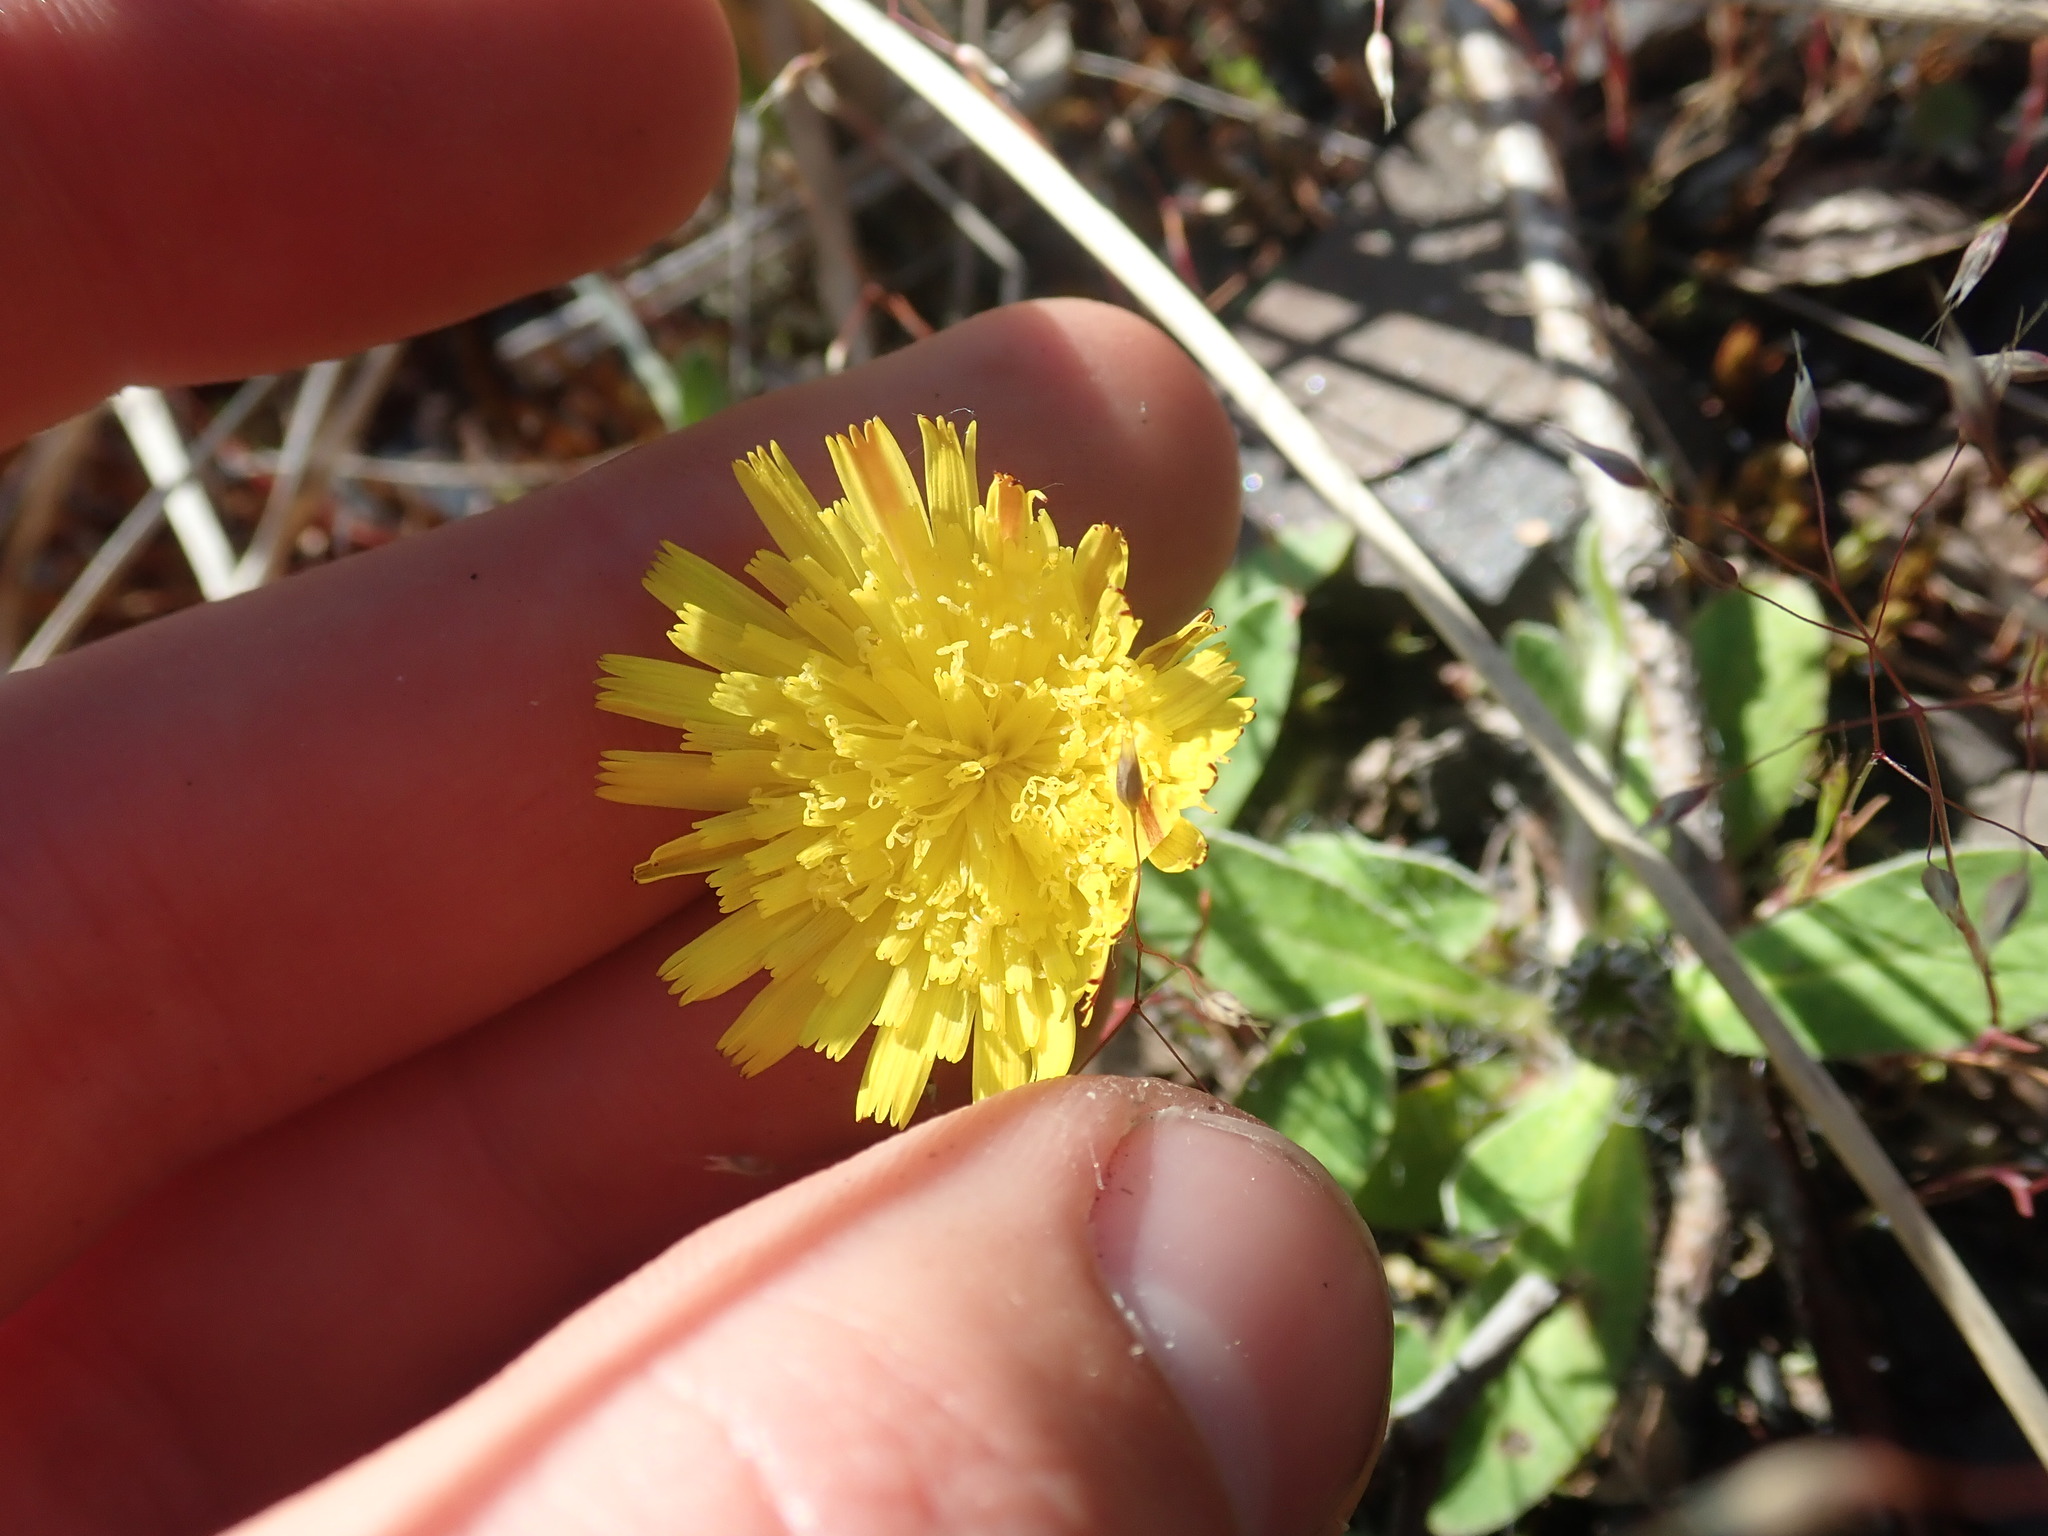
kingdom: Plantae
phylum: Tracheophyta
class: Magnoliopsida
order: Asterales
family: Asteraceae
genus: Pilosella
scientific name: Pilosella officinarum
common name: Mouse-ear hawkweed
